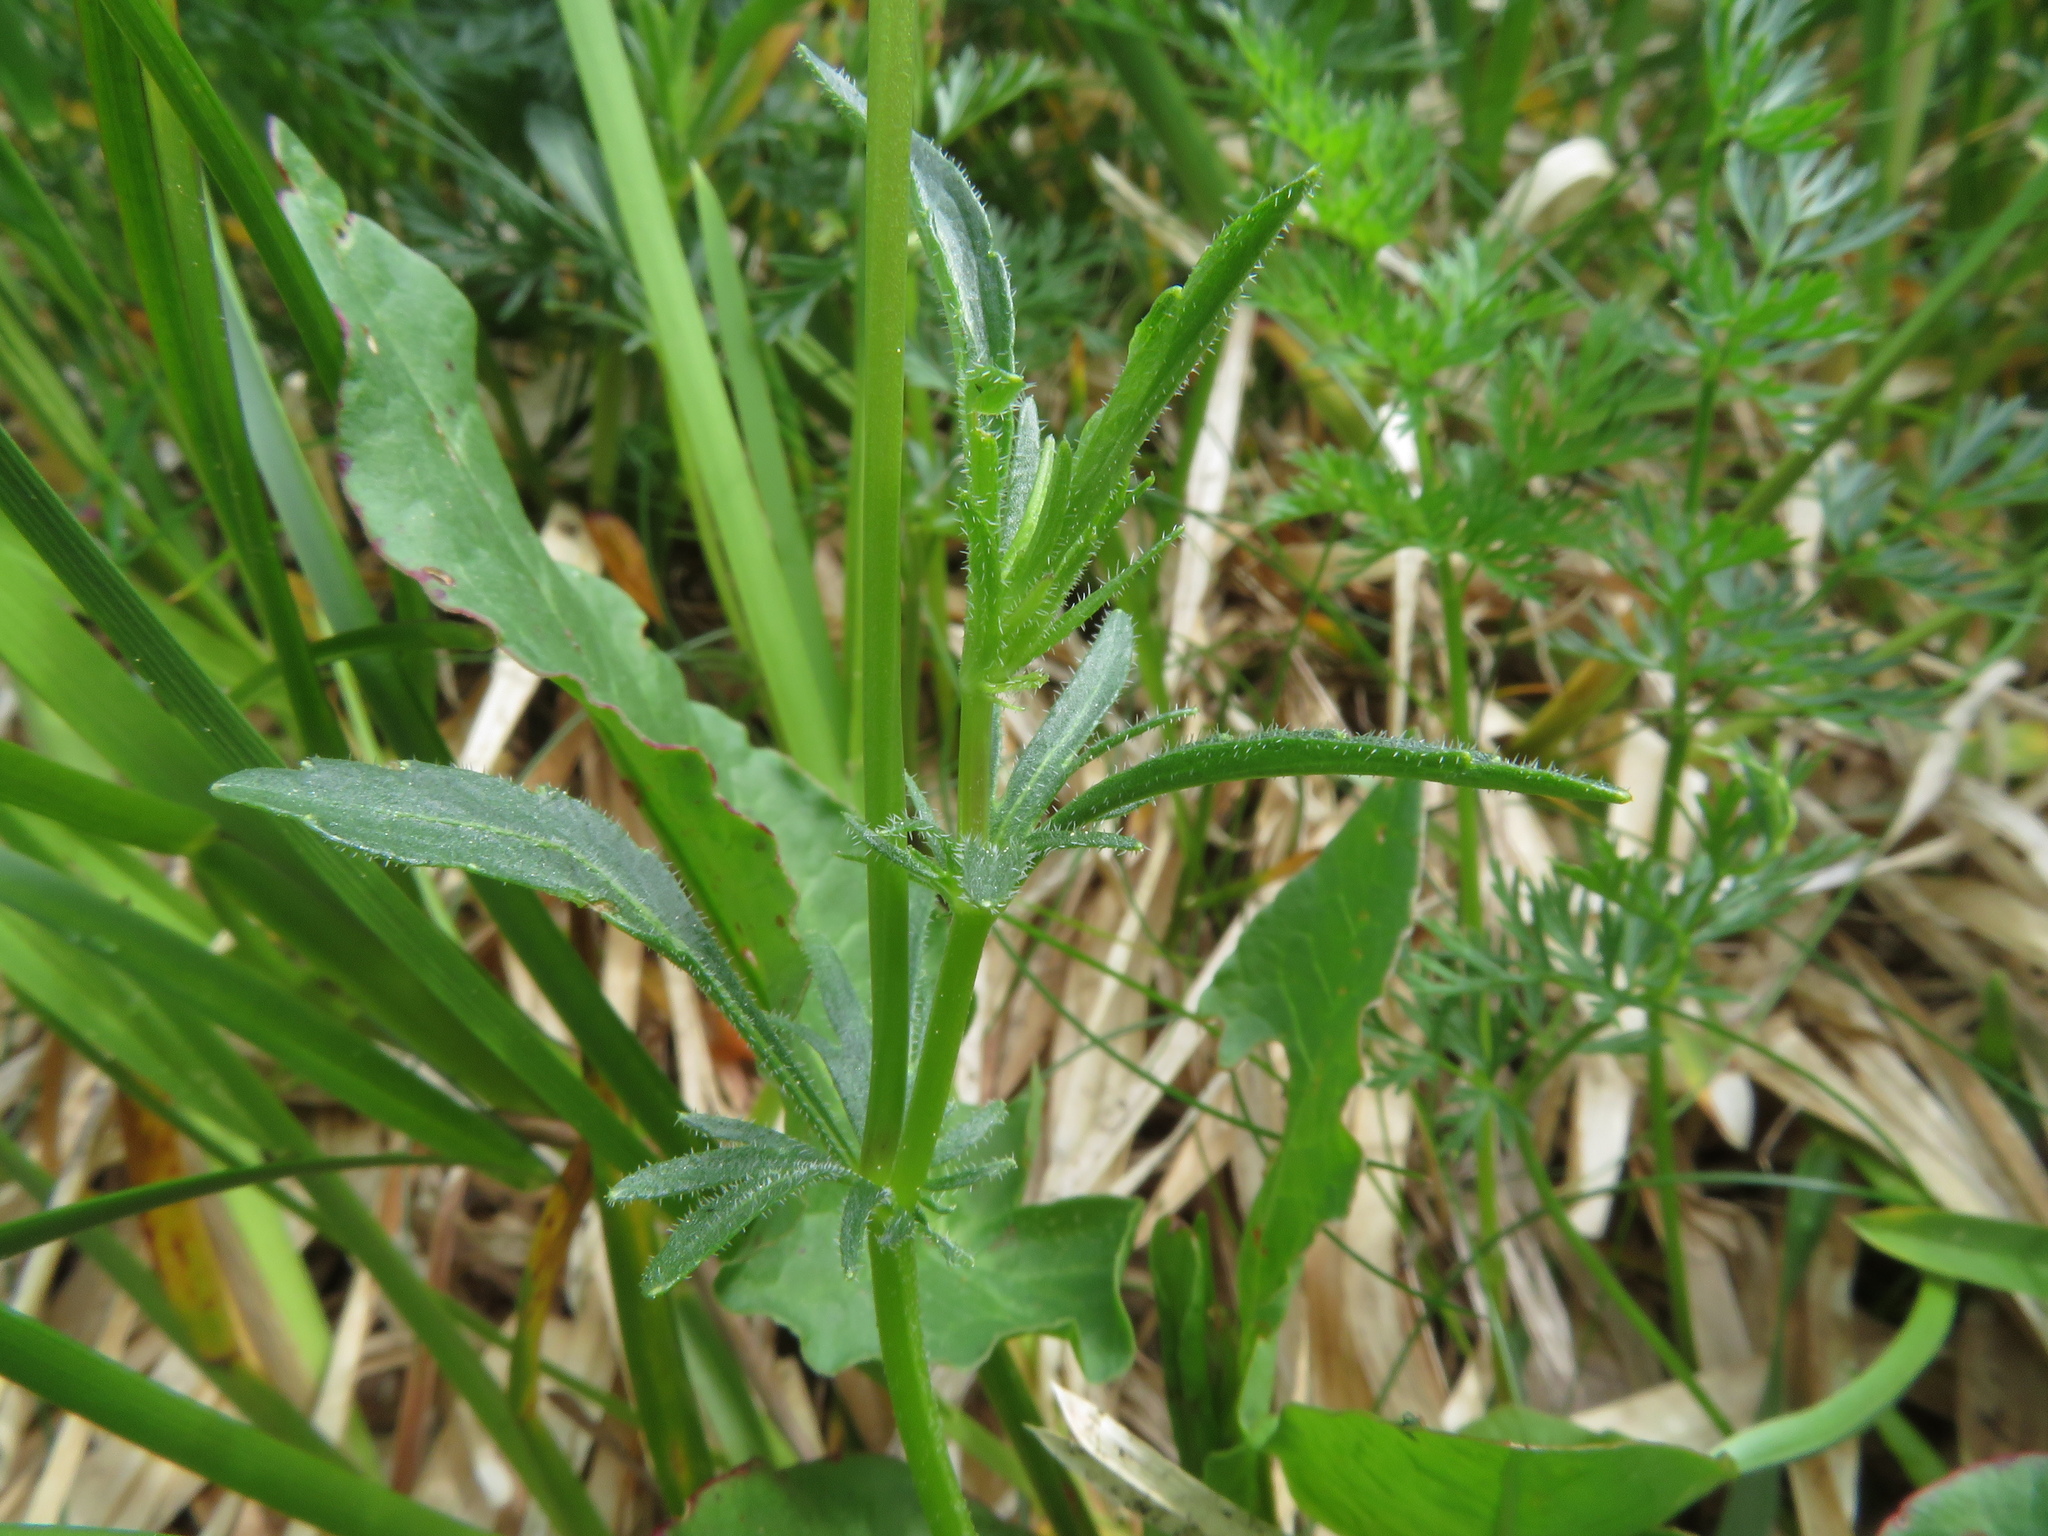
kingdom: Plantae
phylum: Tracheophyta
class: Magnoliopsida
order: Malpighiales
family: Violaceae
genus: Viola
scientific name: Viola lutea
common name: Mountain pansy
